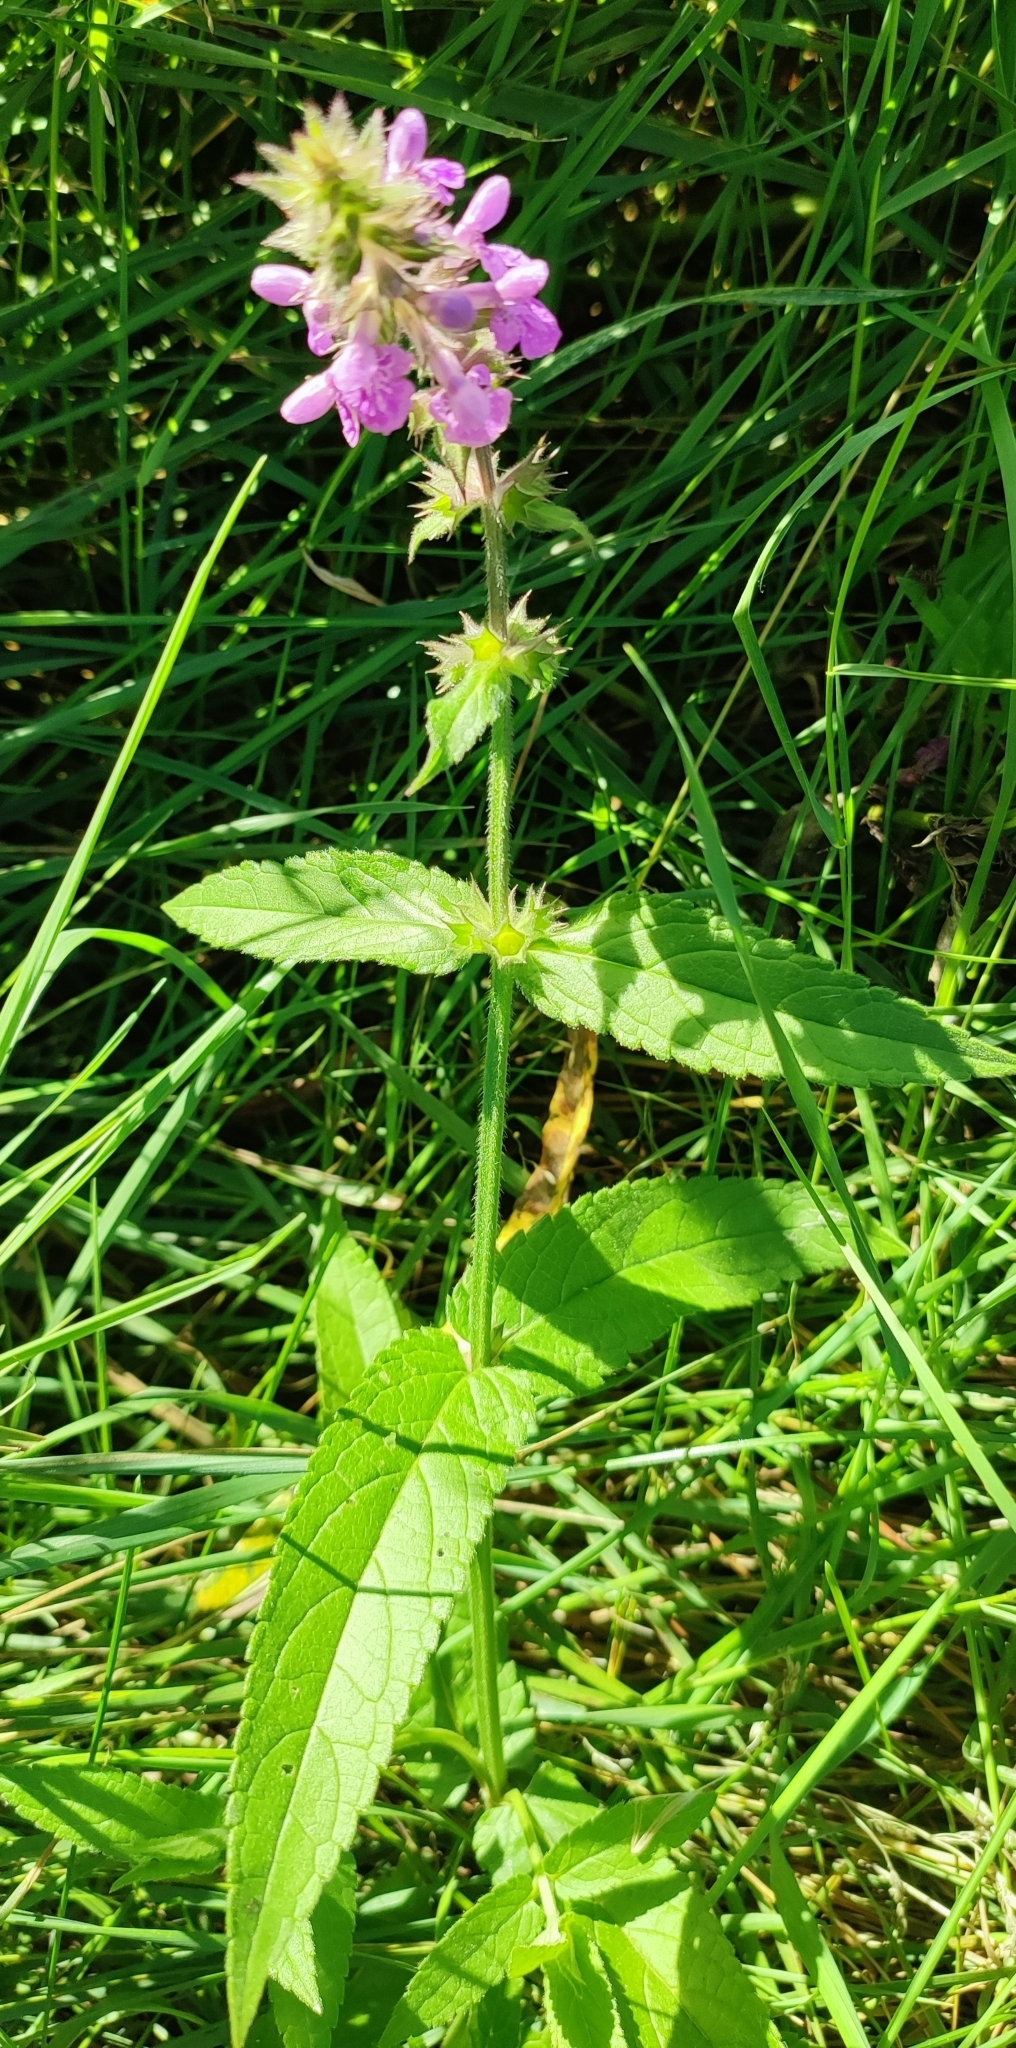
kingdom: Plantae
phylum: Tracheophyta
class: Magnoliopsida
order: Lamiales
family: Lamiaceae
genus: Stachys
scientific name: Stachys palustris
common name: Marsh woundwort
